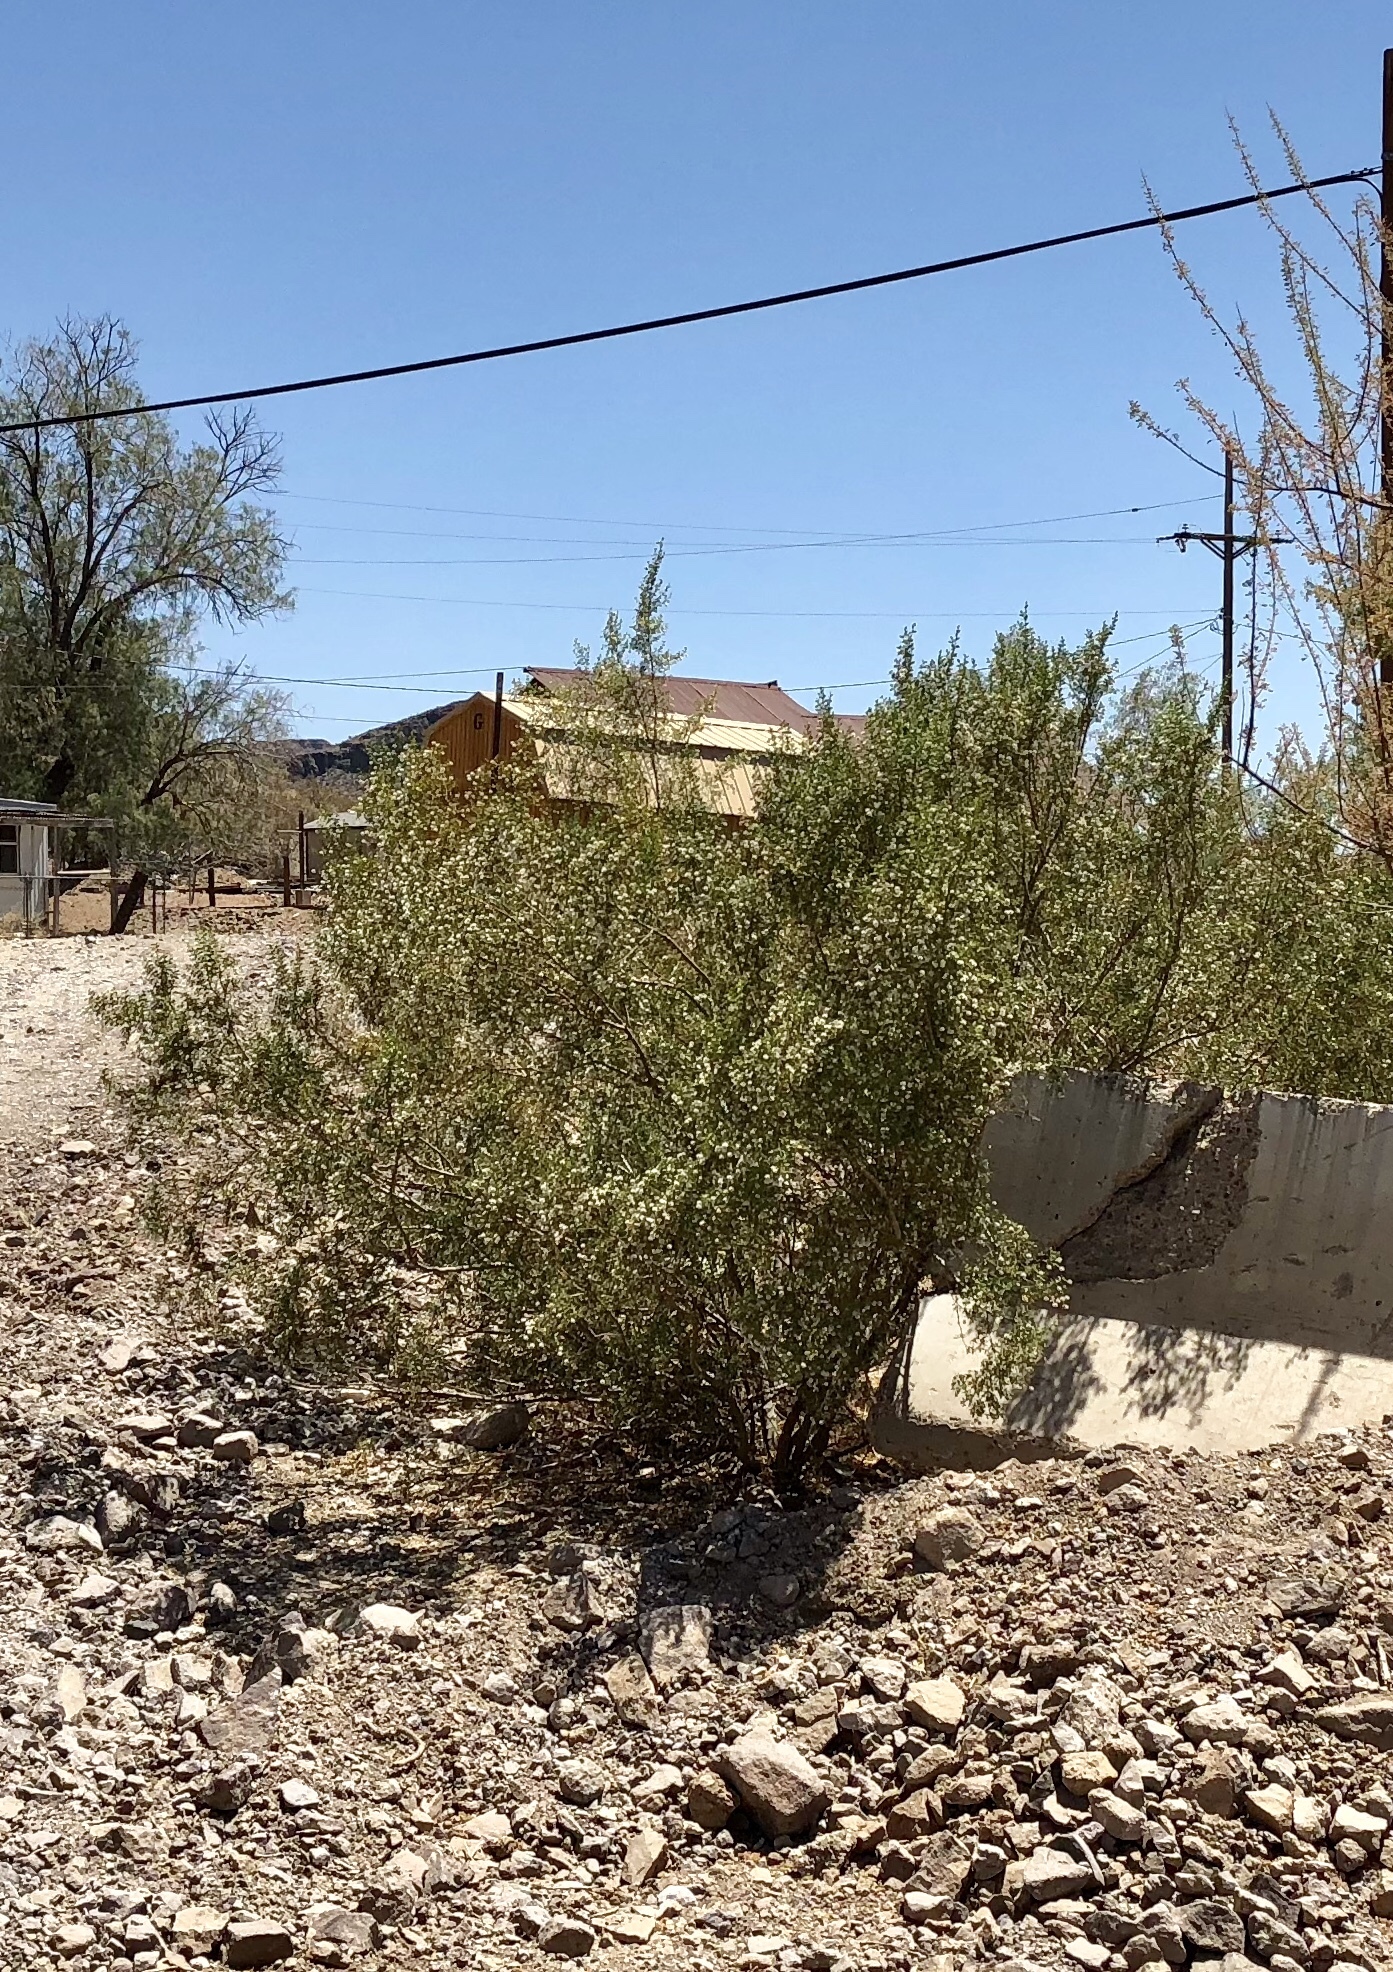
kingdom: Plantae
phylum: Tracheophyta
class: Magnoliopsida
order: Zygophyllales
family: Zygophyllaceae
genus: Larrea
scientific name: Larrea tridentata
